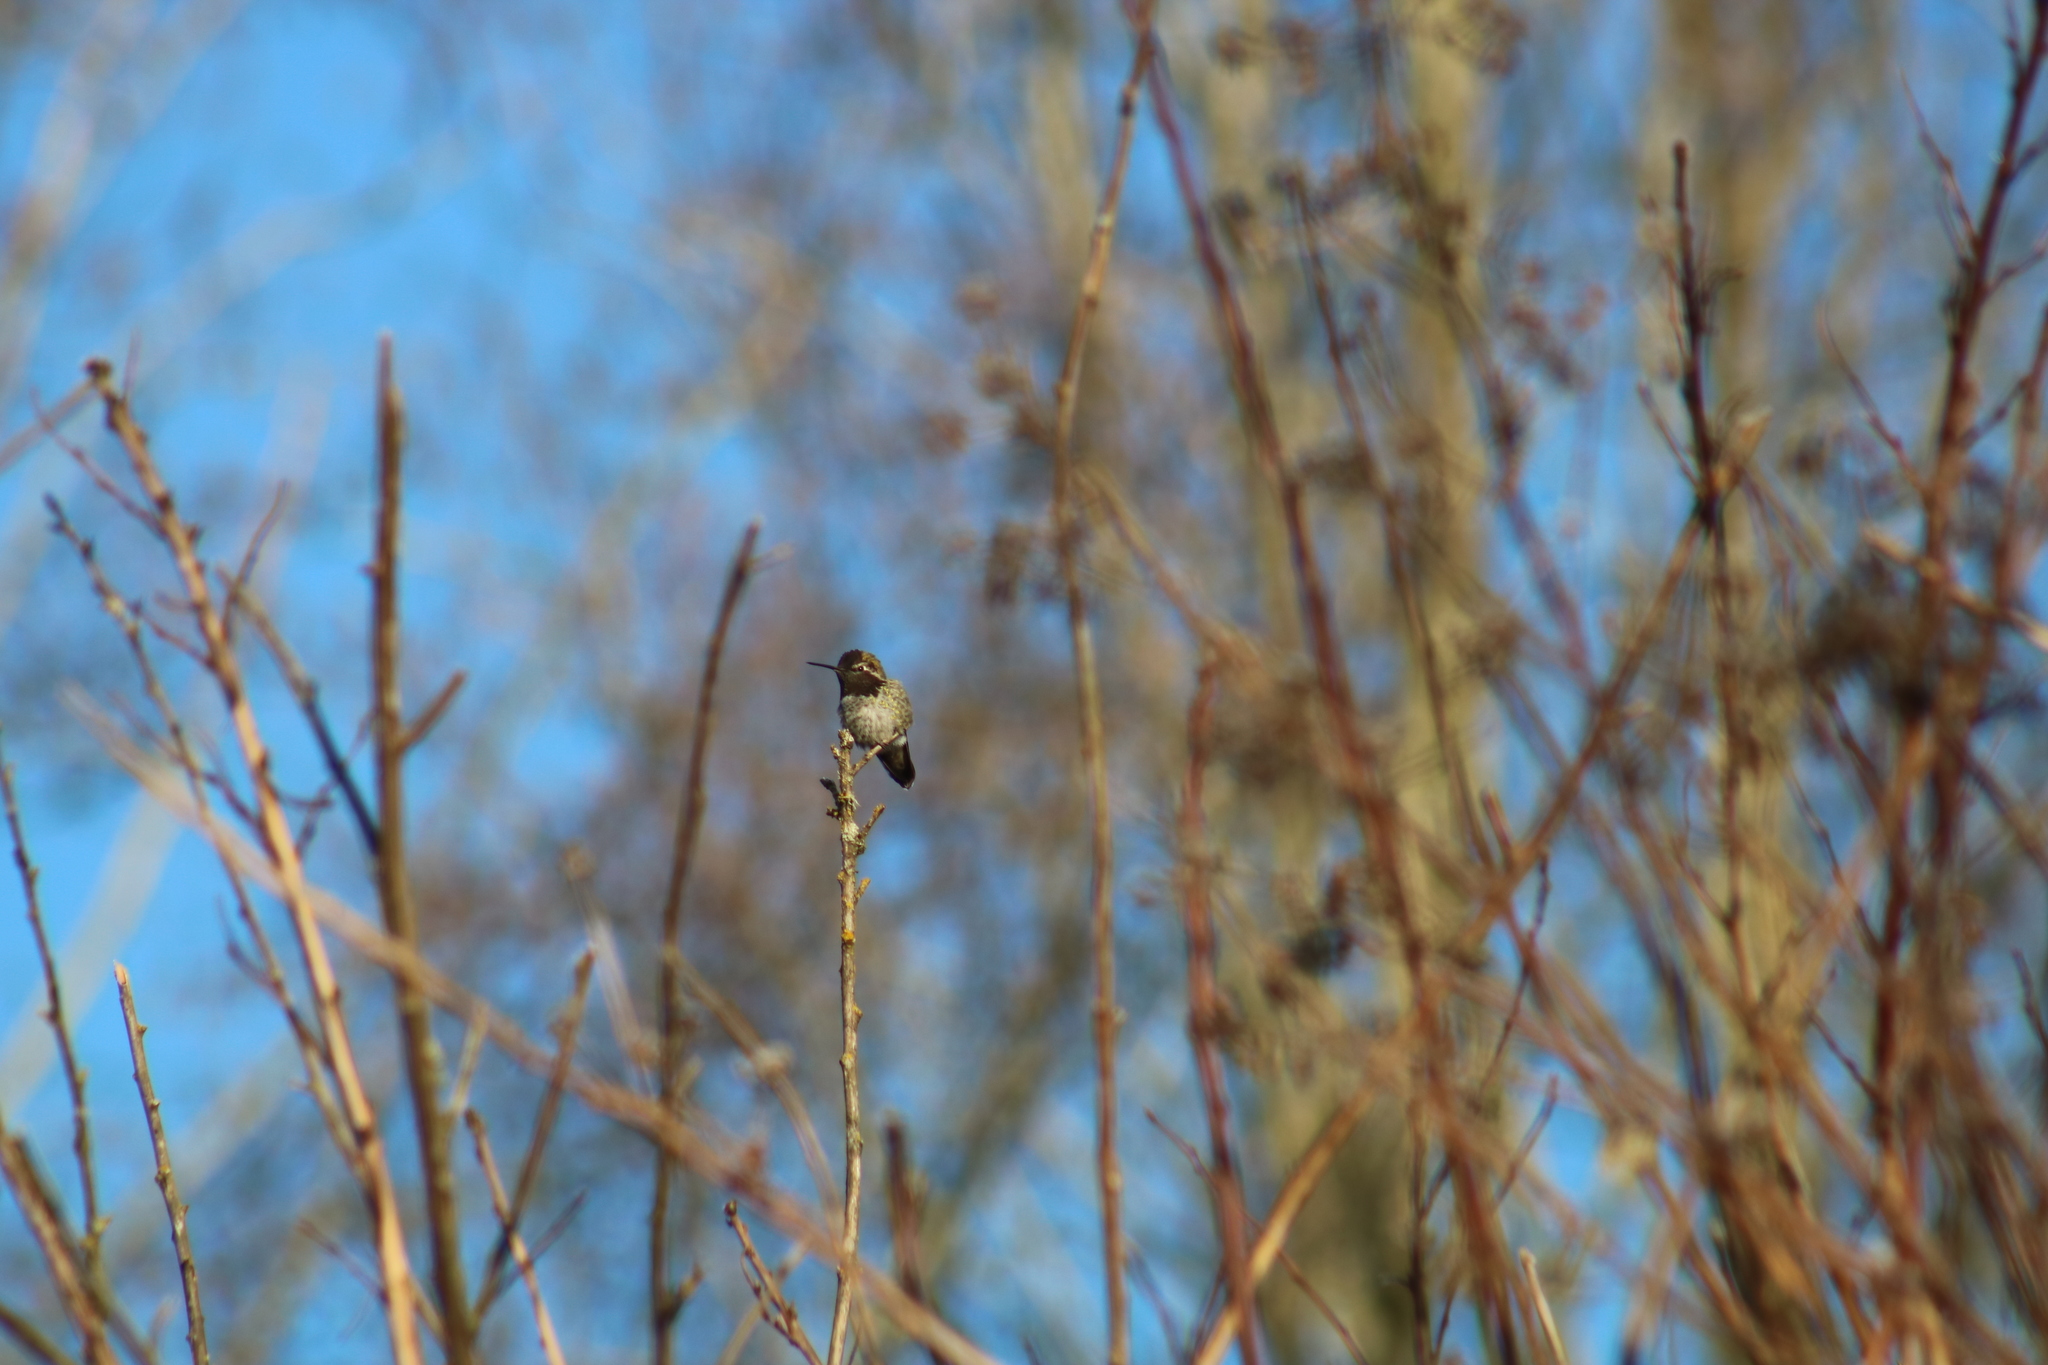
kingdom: Animalia
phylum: Chordata
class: Aves
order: Apodiformes
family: Trochilidae
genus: Calypte
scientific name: Calypte anna
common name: Anna's hummingbird
